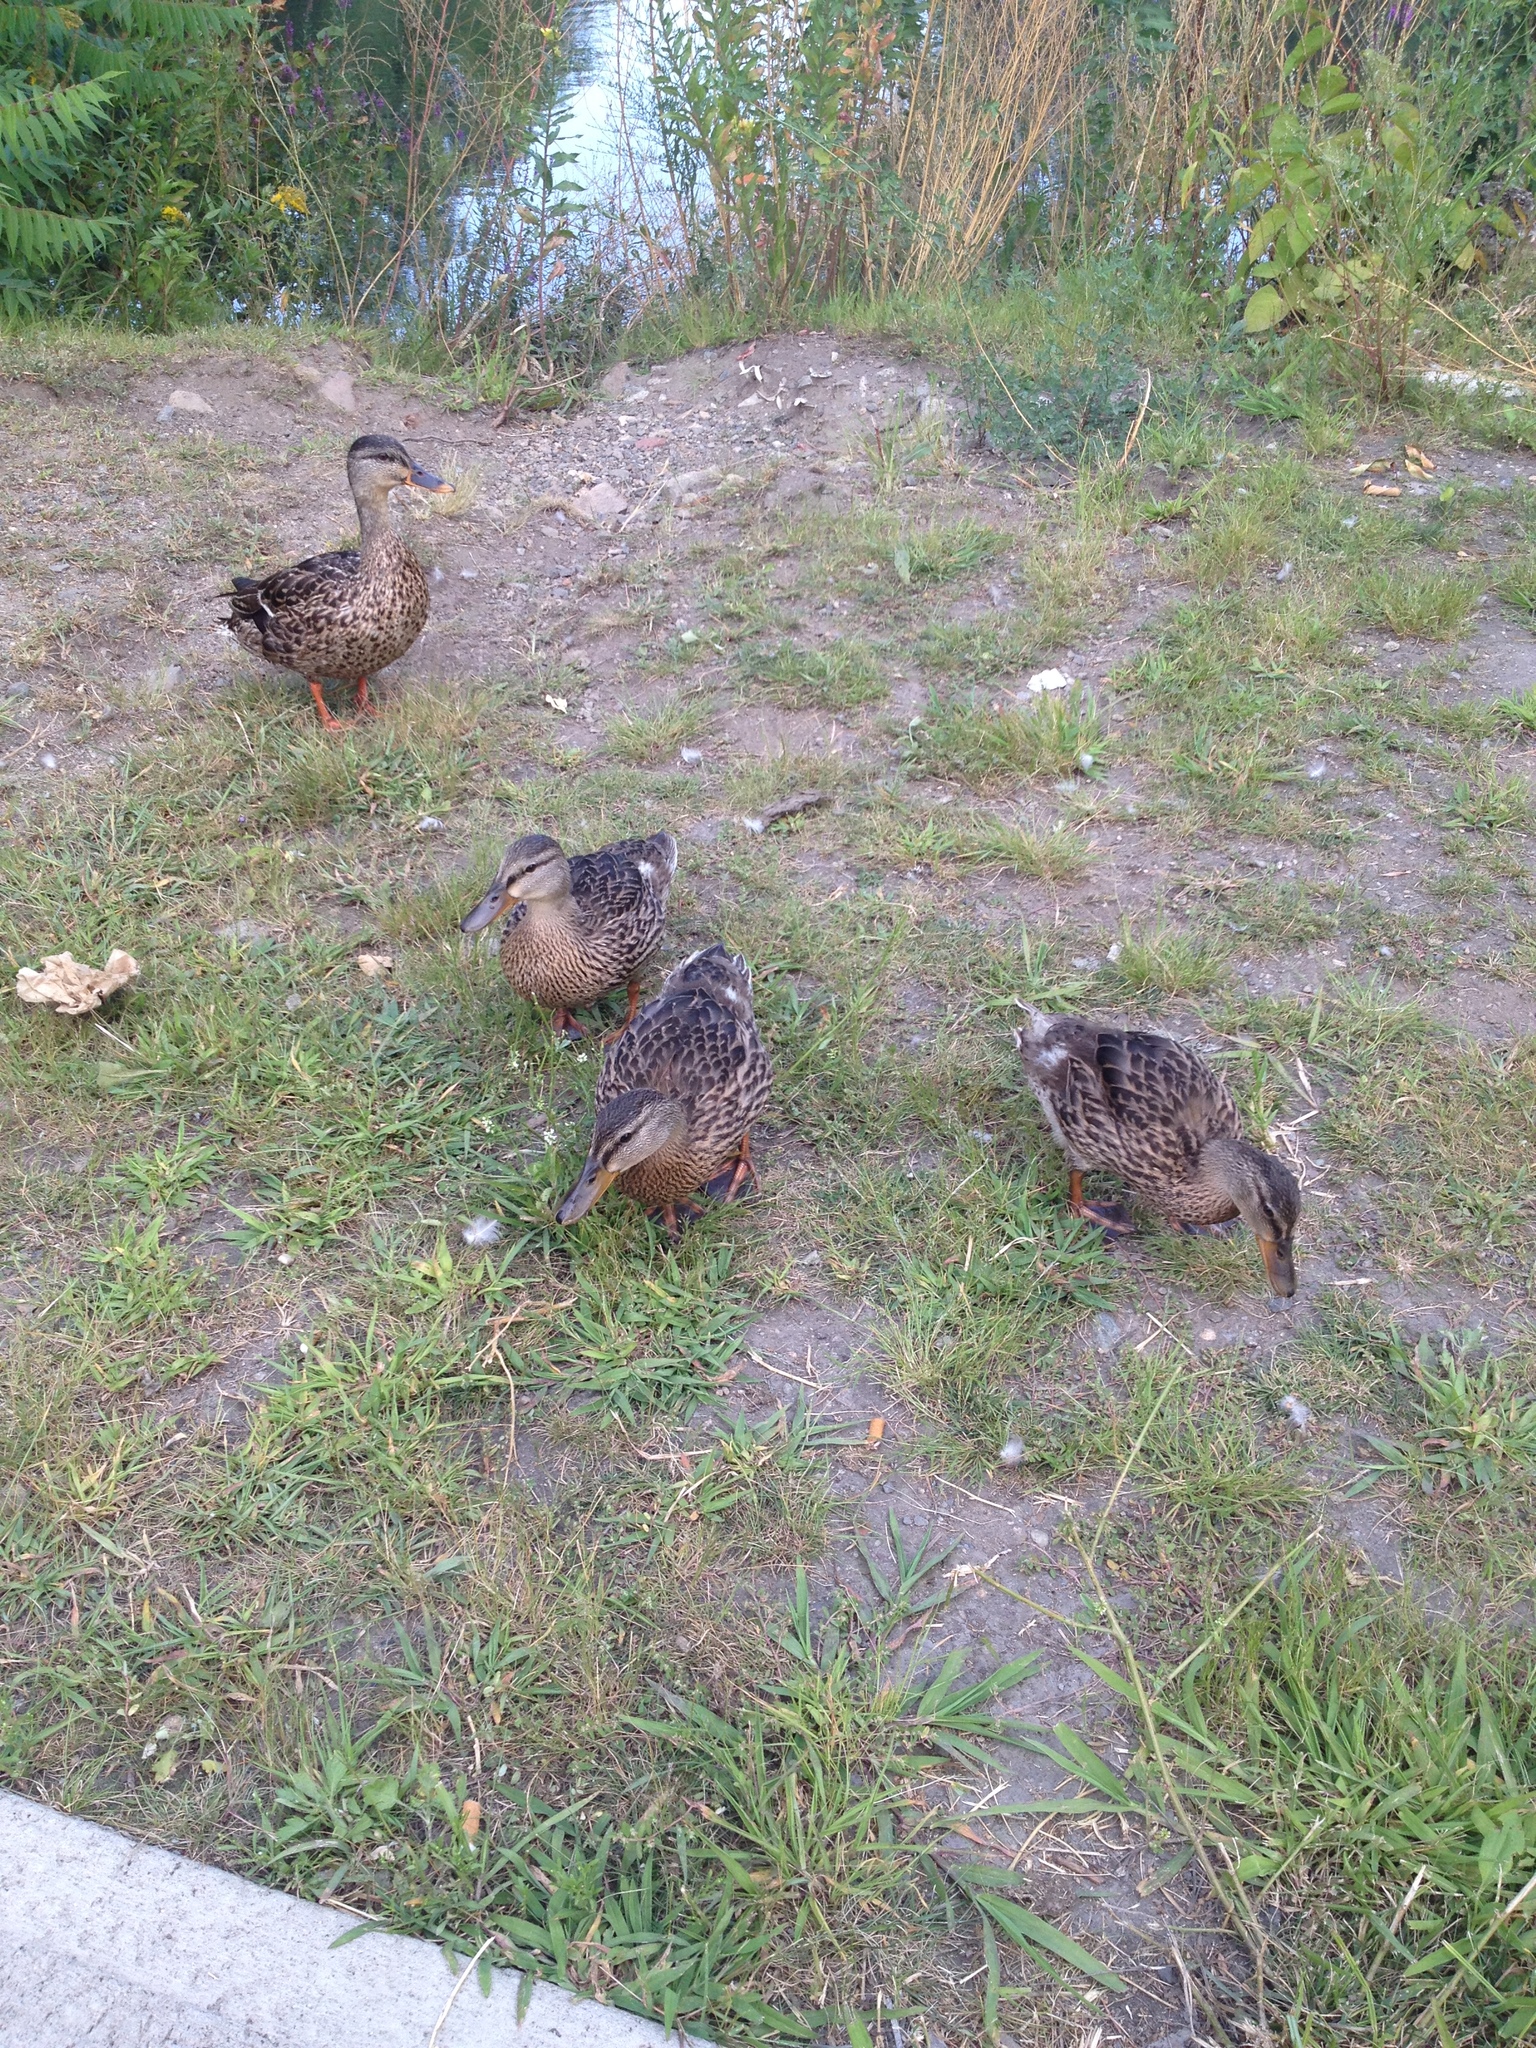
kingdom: Animalia
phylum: Chordata
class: Aves
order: Anseriformes
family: Anatidae
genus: Anas
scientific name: Anas platyrhynchos
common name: Mallard
